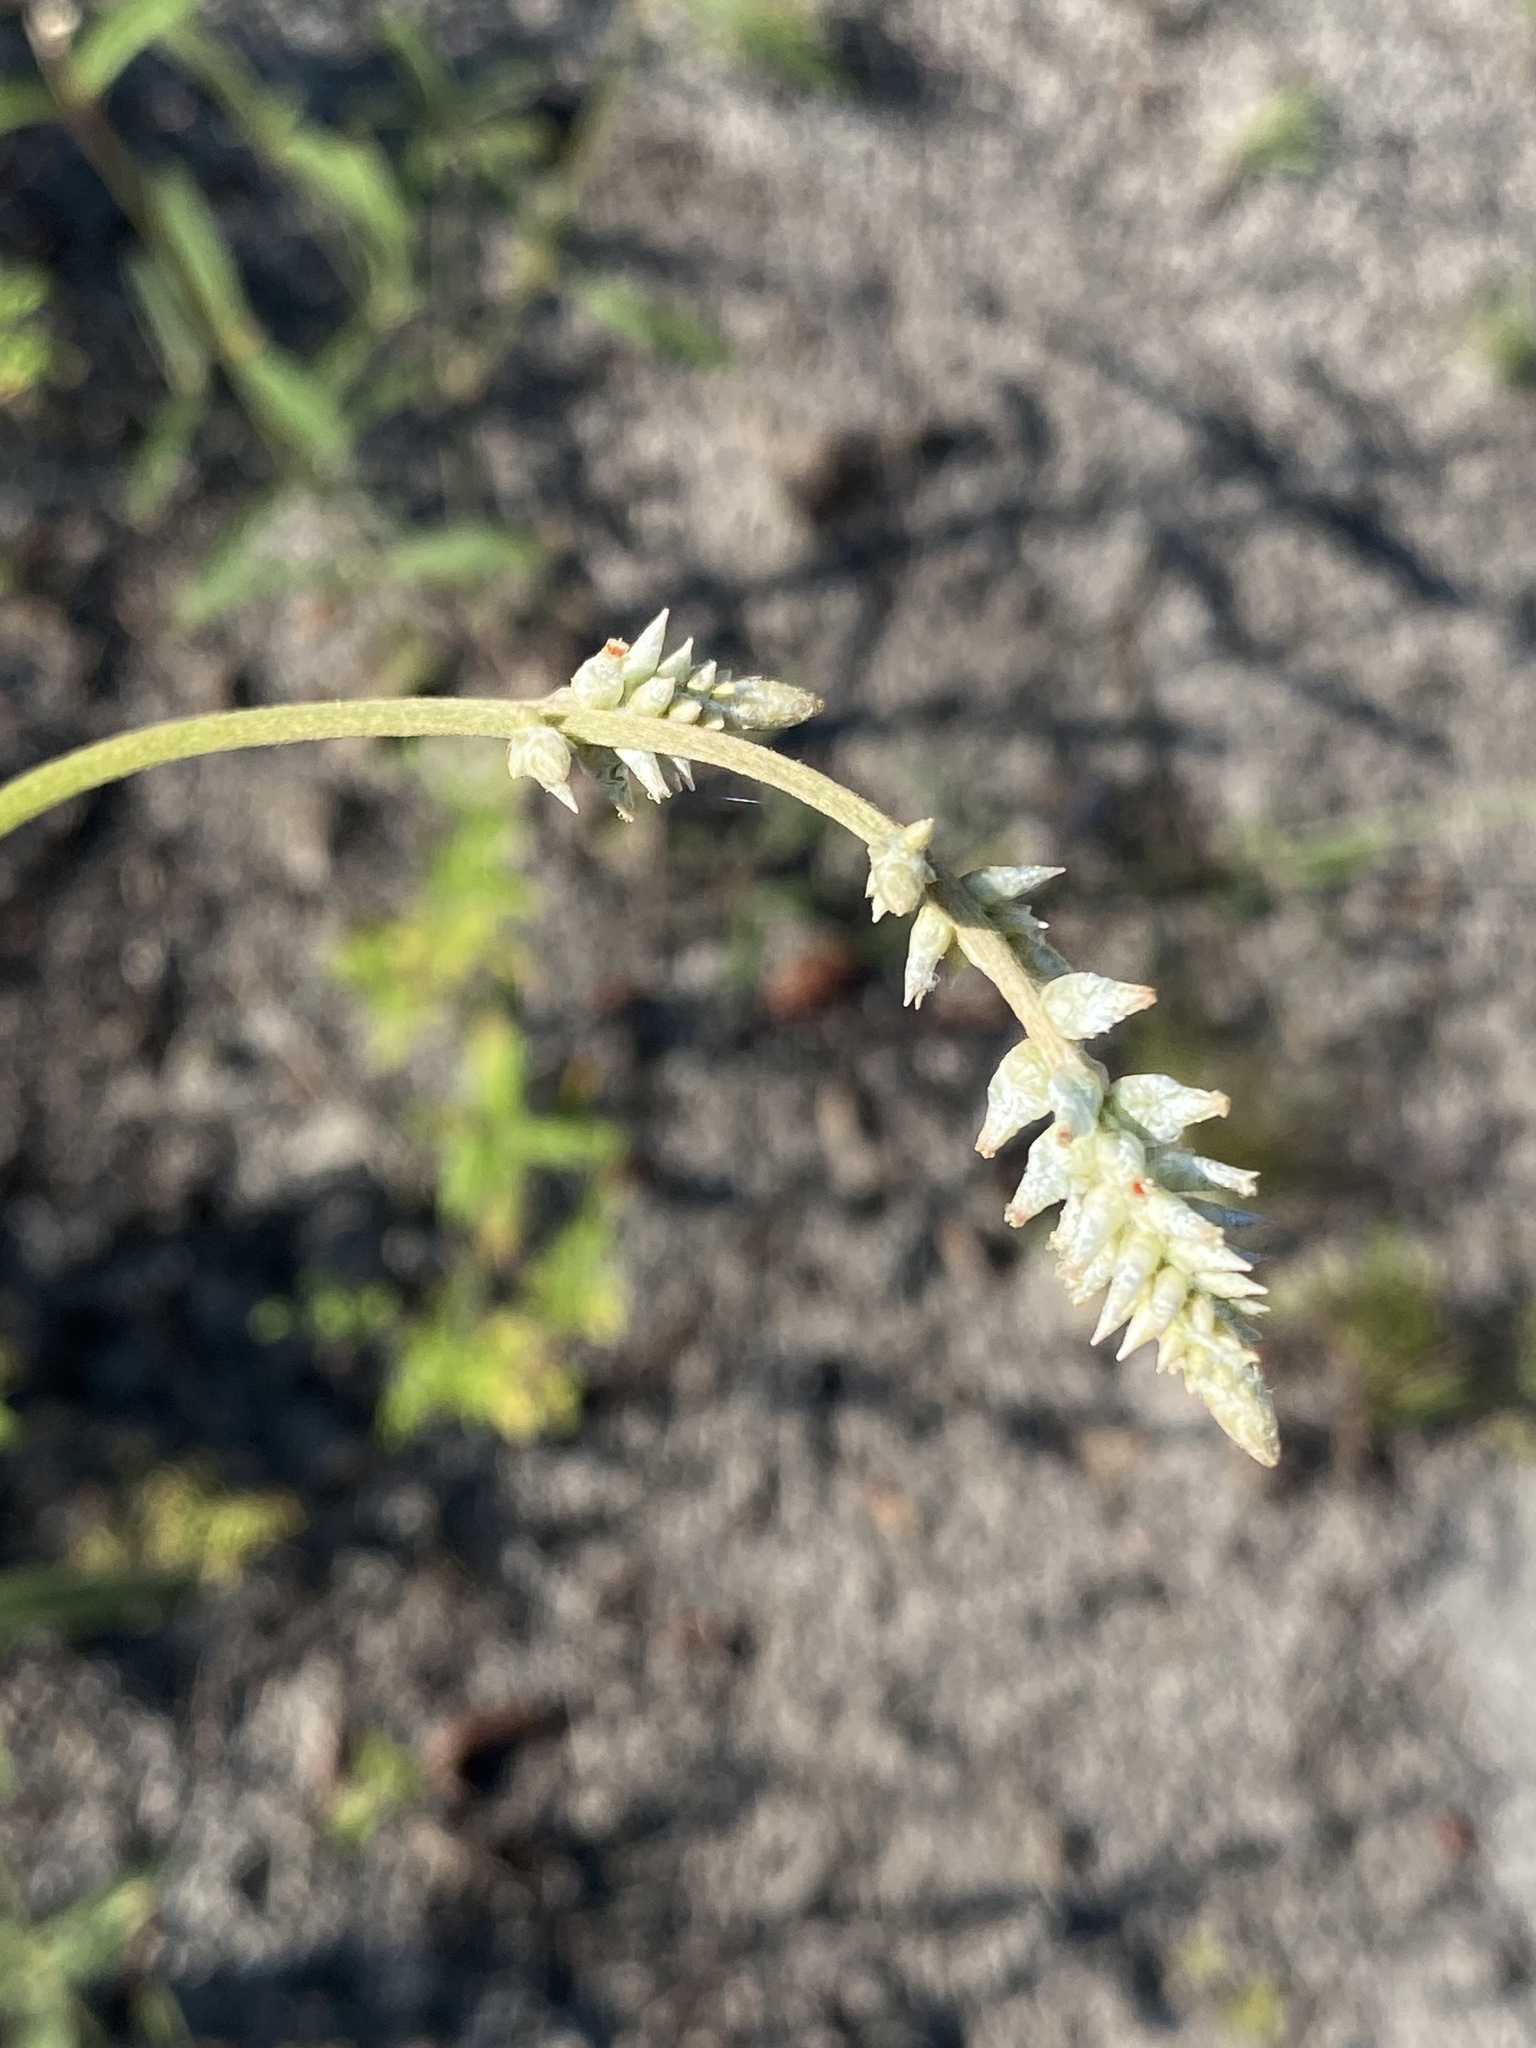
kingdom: Plantae
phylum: Tracheophyta
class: Magnoliopsida
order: Caryophyllales
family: Amaranthaceae
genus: Froelichia
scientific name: Froelichia floridana
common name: Florida snake-cotton
